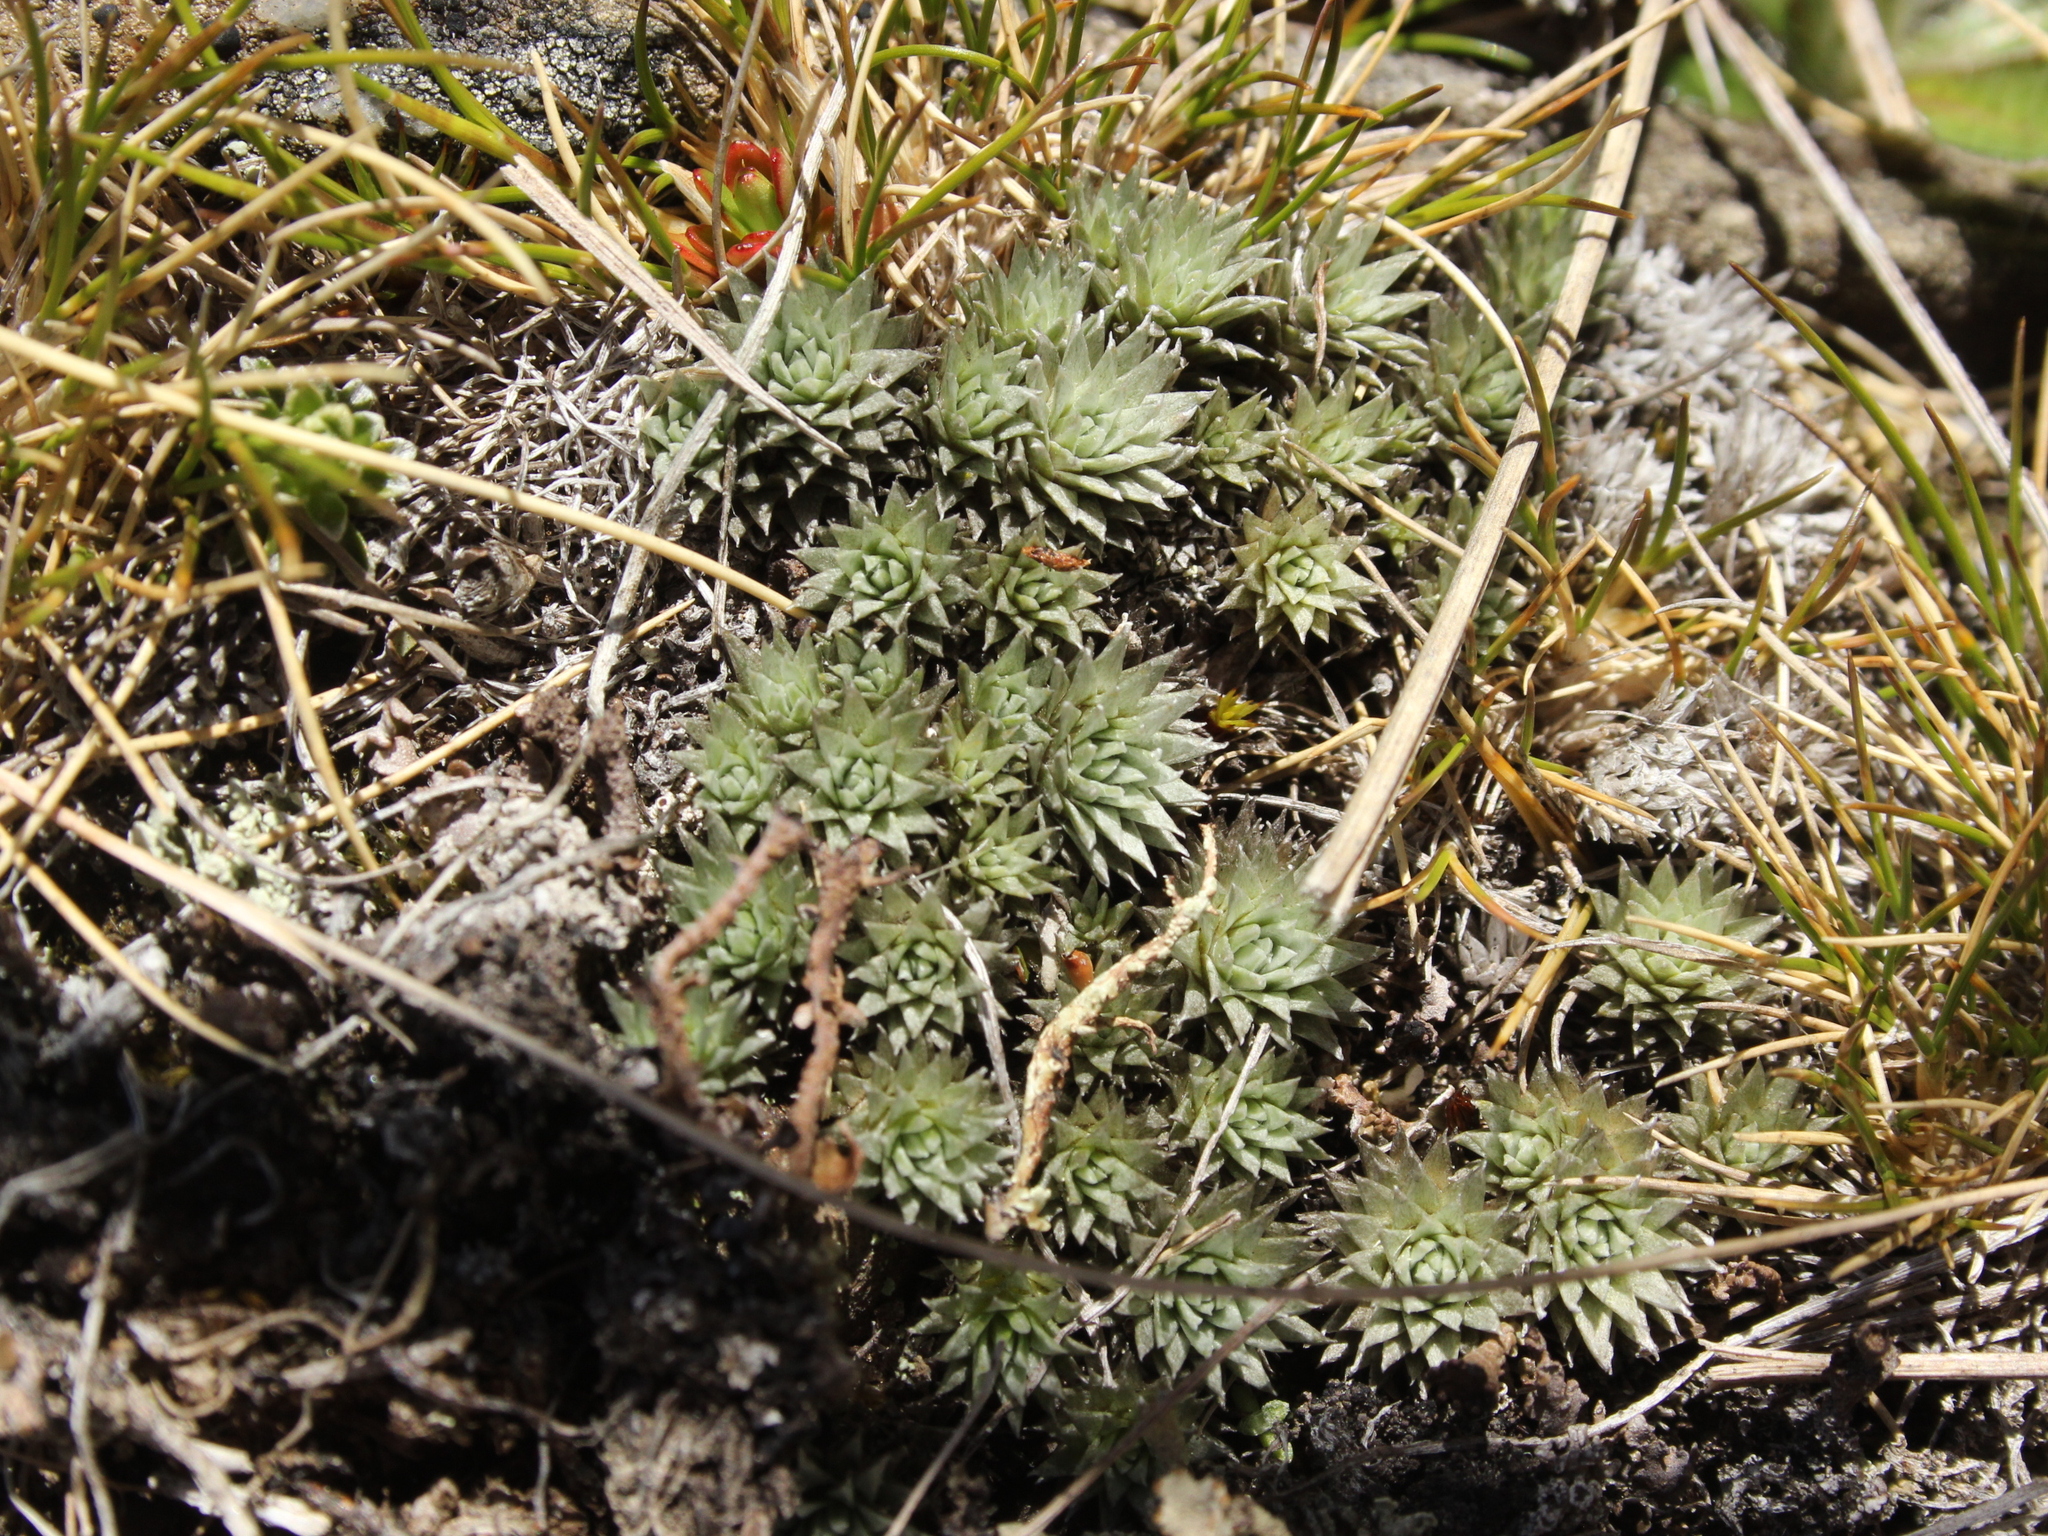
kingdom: Plantae
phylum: Tracheophyta
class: Magnoliopsida
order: Asterales
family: Asteraceae
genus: Raoulia
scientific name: Raoulia grandiflora
